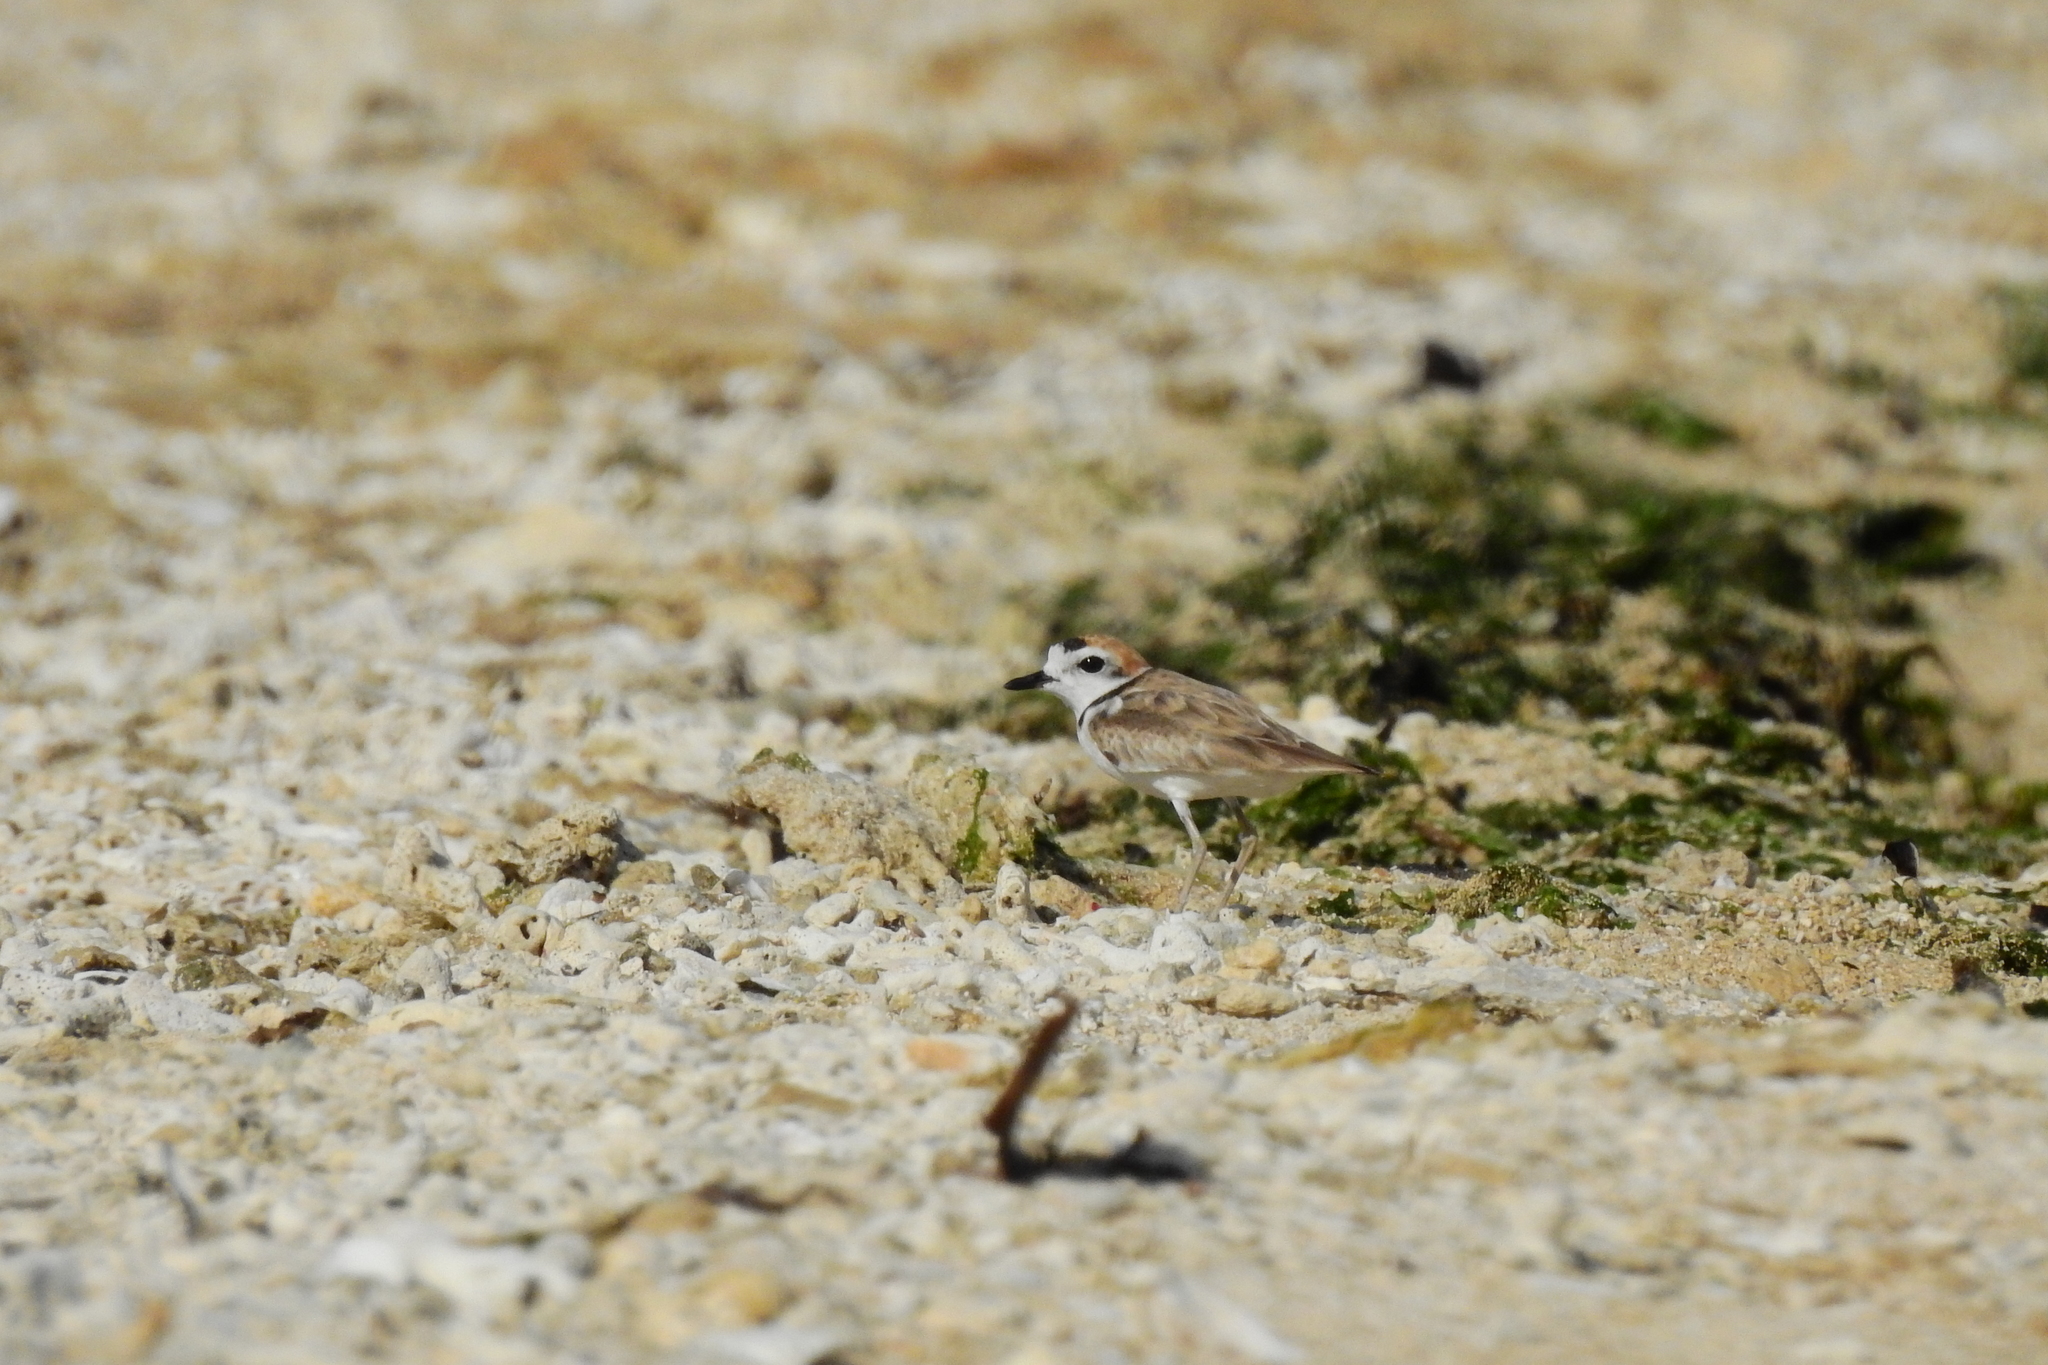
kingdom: Animalia
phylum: Chordata
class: Aves
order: Charadriiformes
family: Charadriidae
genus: Anarhynchus
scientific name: Anarhynchus
